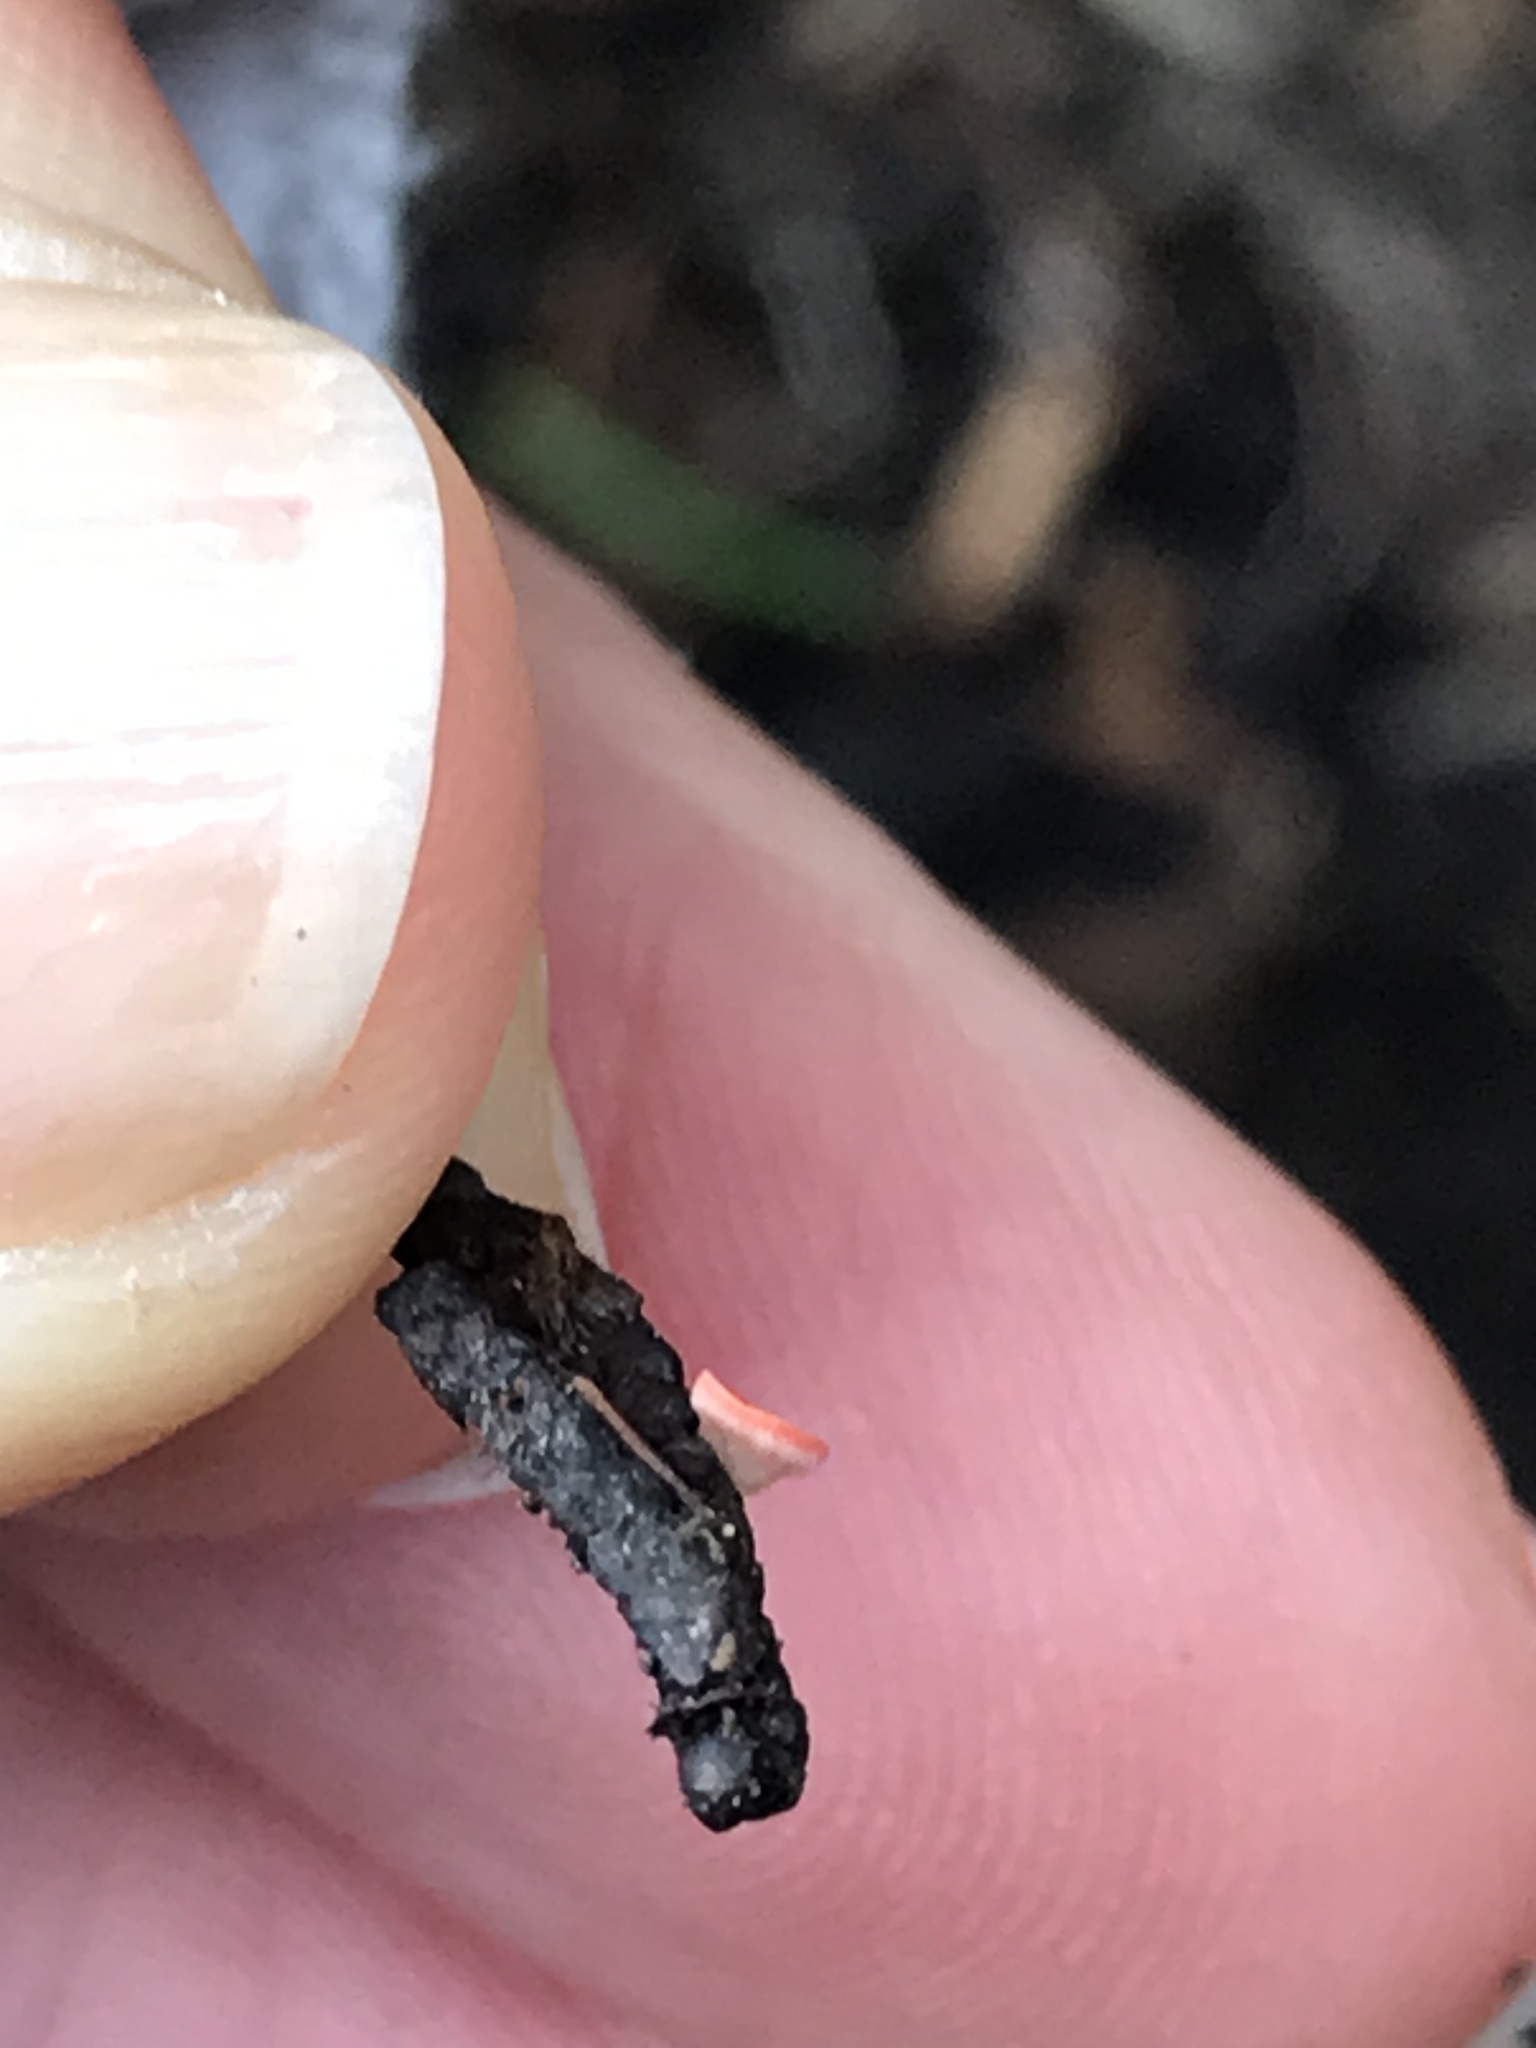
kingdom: Fungi
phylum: Ascomycota
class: Pezizomycetes
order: Pezizales
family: Sarcoscyphaceae
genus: Pseudopithyella
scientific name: Pseudopithyella minuscula
